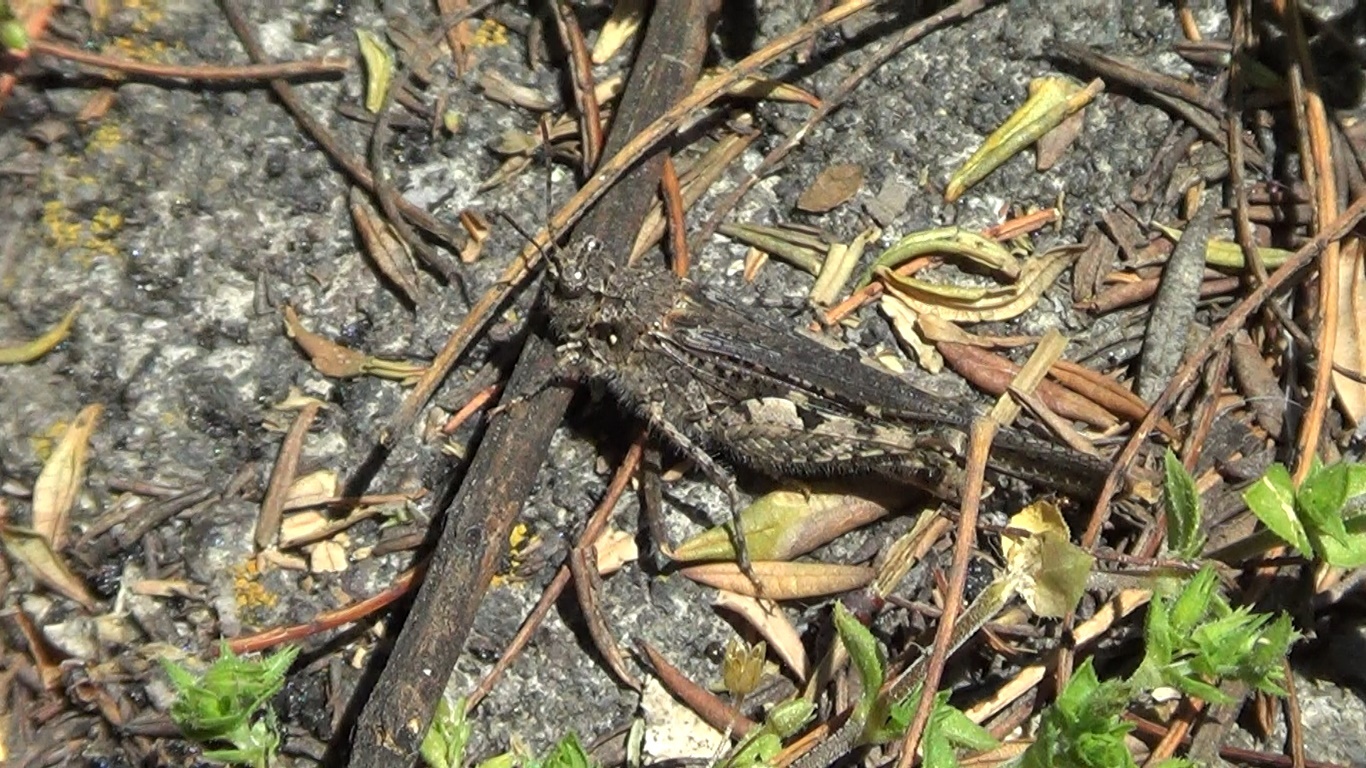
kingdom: Animalia
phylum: Arthropoda
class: Insecta
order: Orthoptera
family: Acrididae
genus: Acrotylus
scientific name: Acrotylus insubricus
